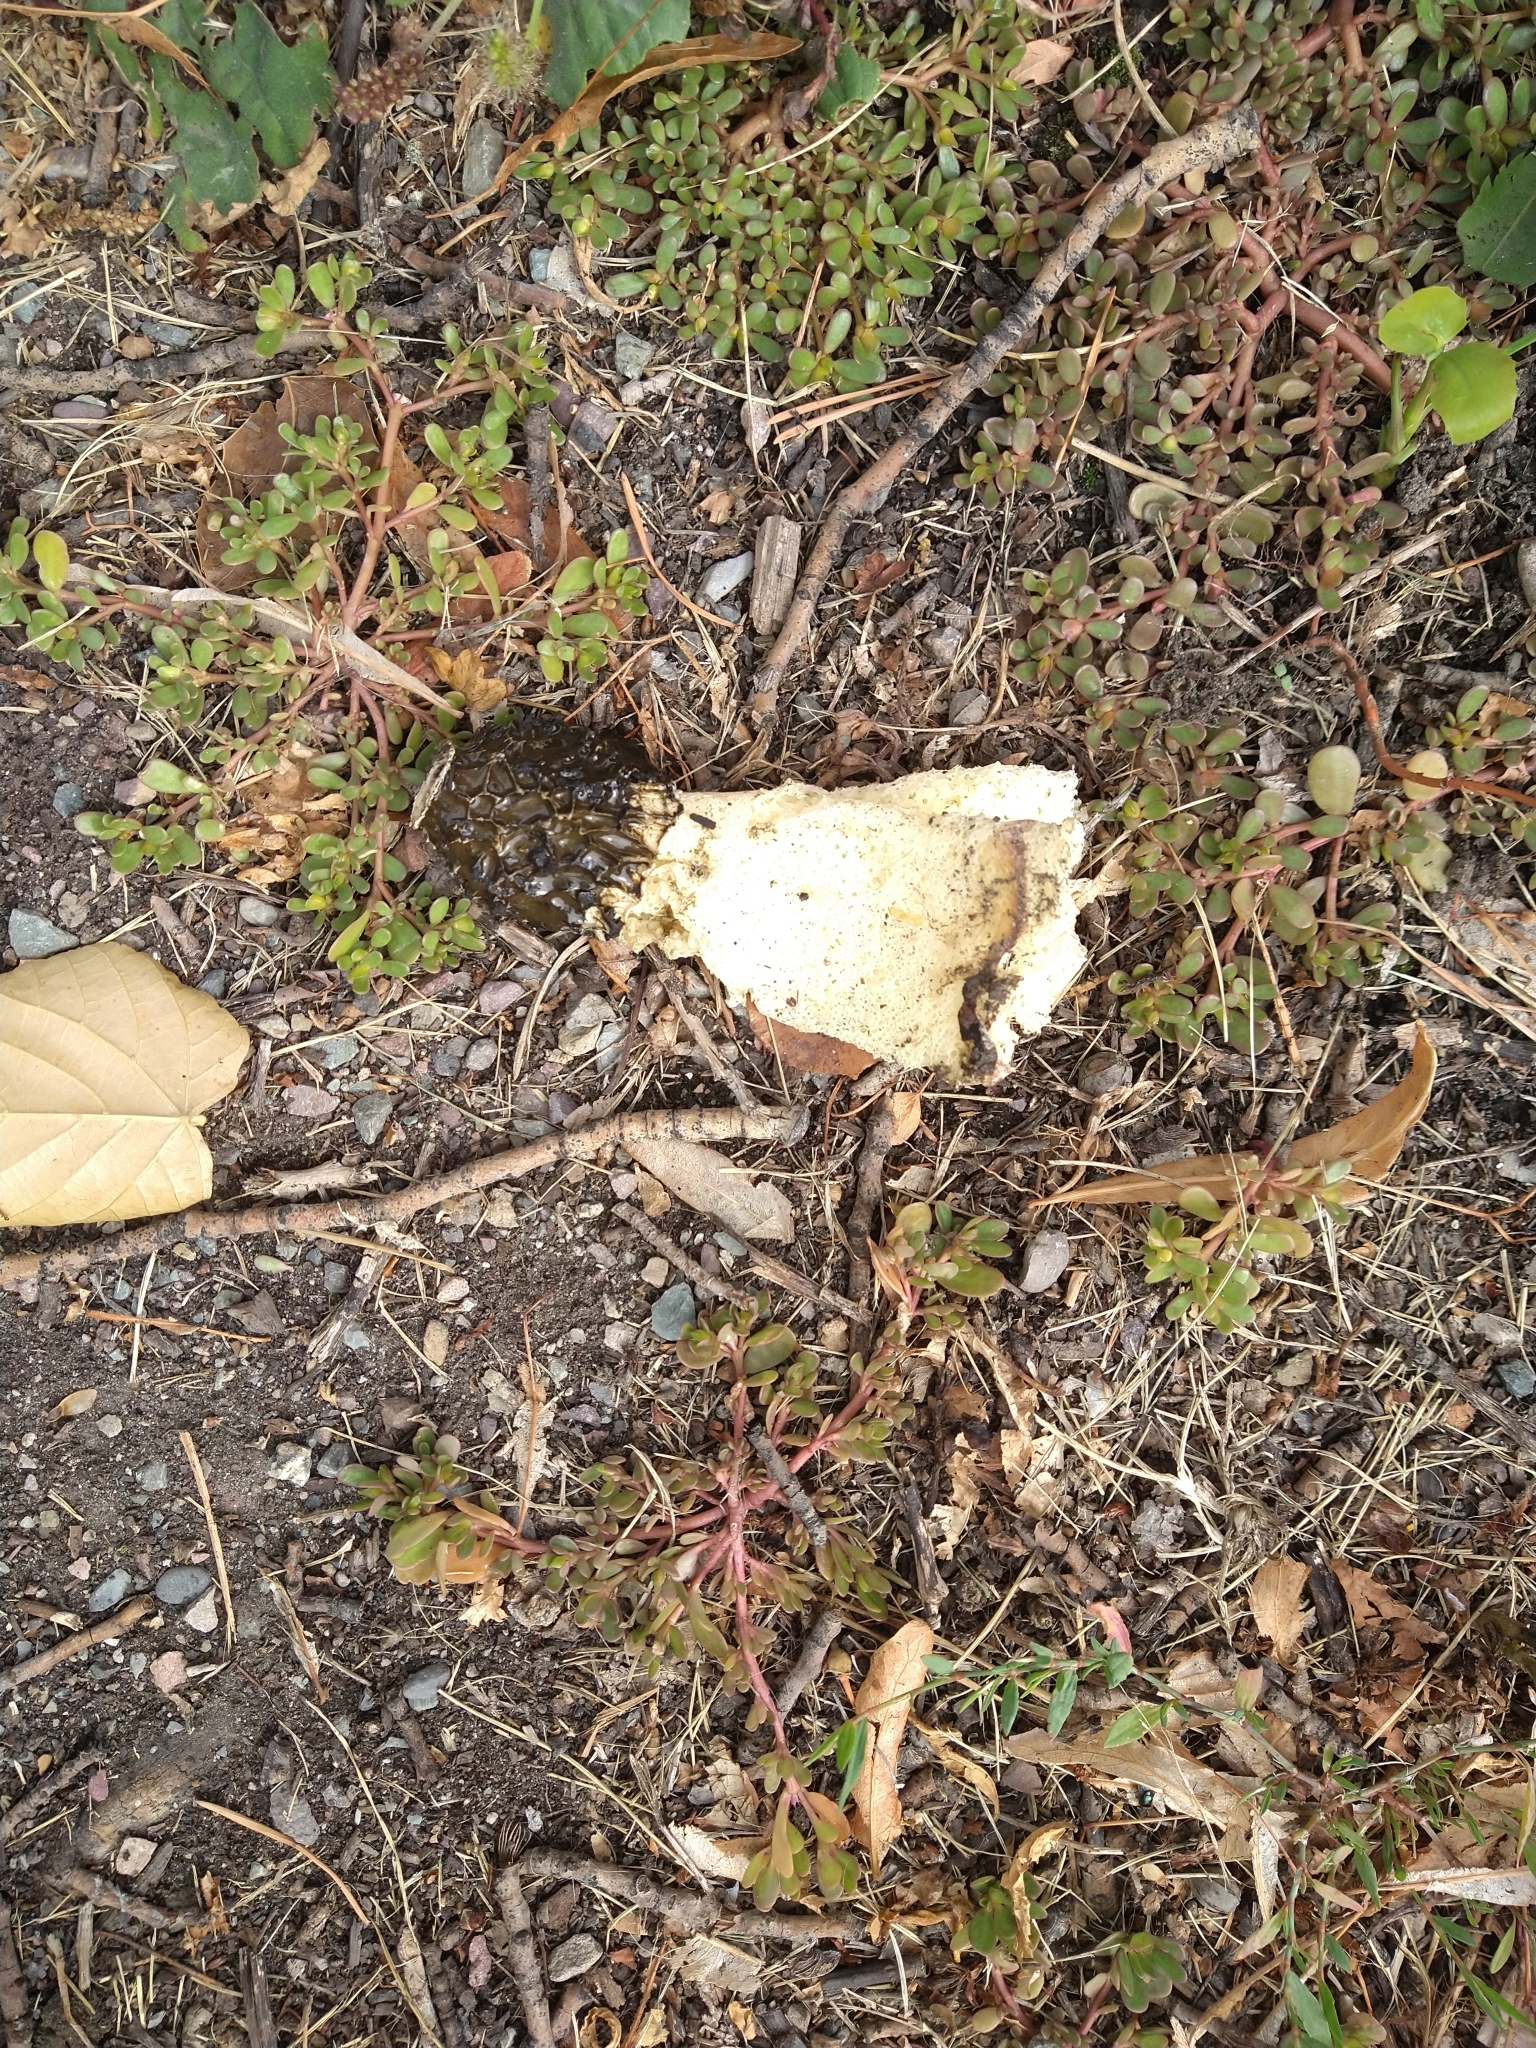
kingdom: Fungi
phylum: Basidiomycota
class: Agaricomycetes
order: Phallales
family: Phallaceae
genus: Phallus
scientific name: Phallus hadriani
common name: Sand stinkhorn
